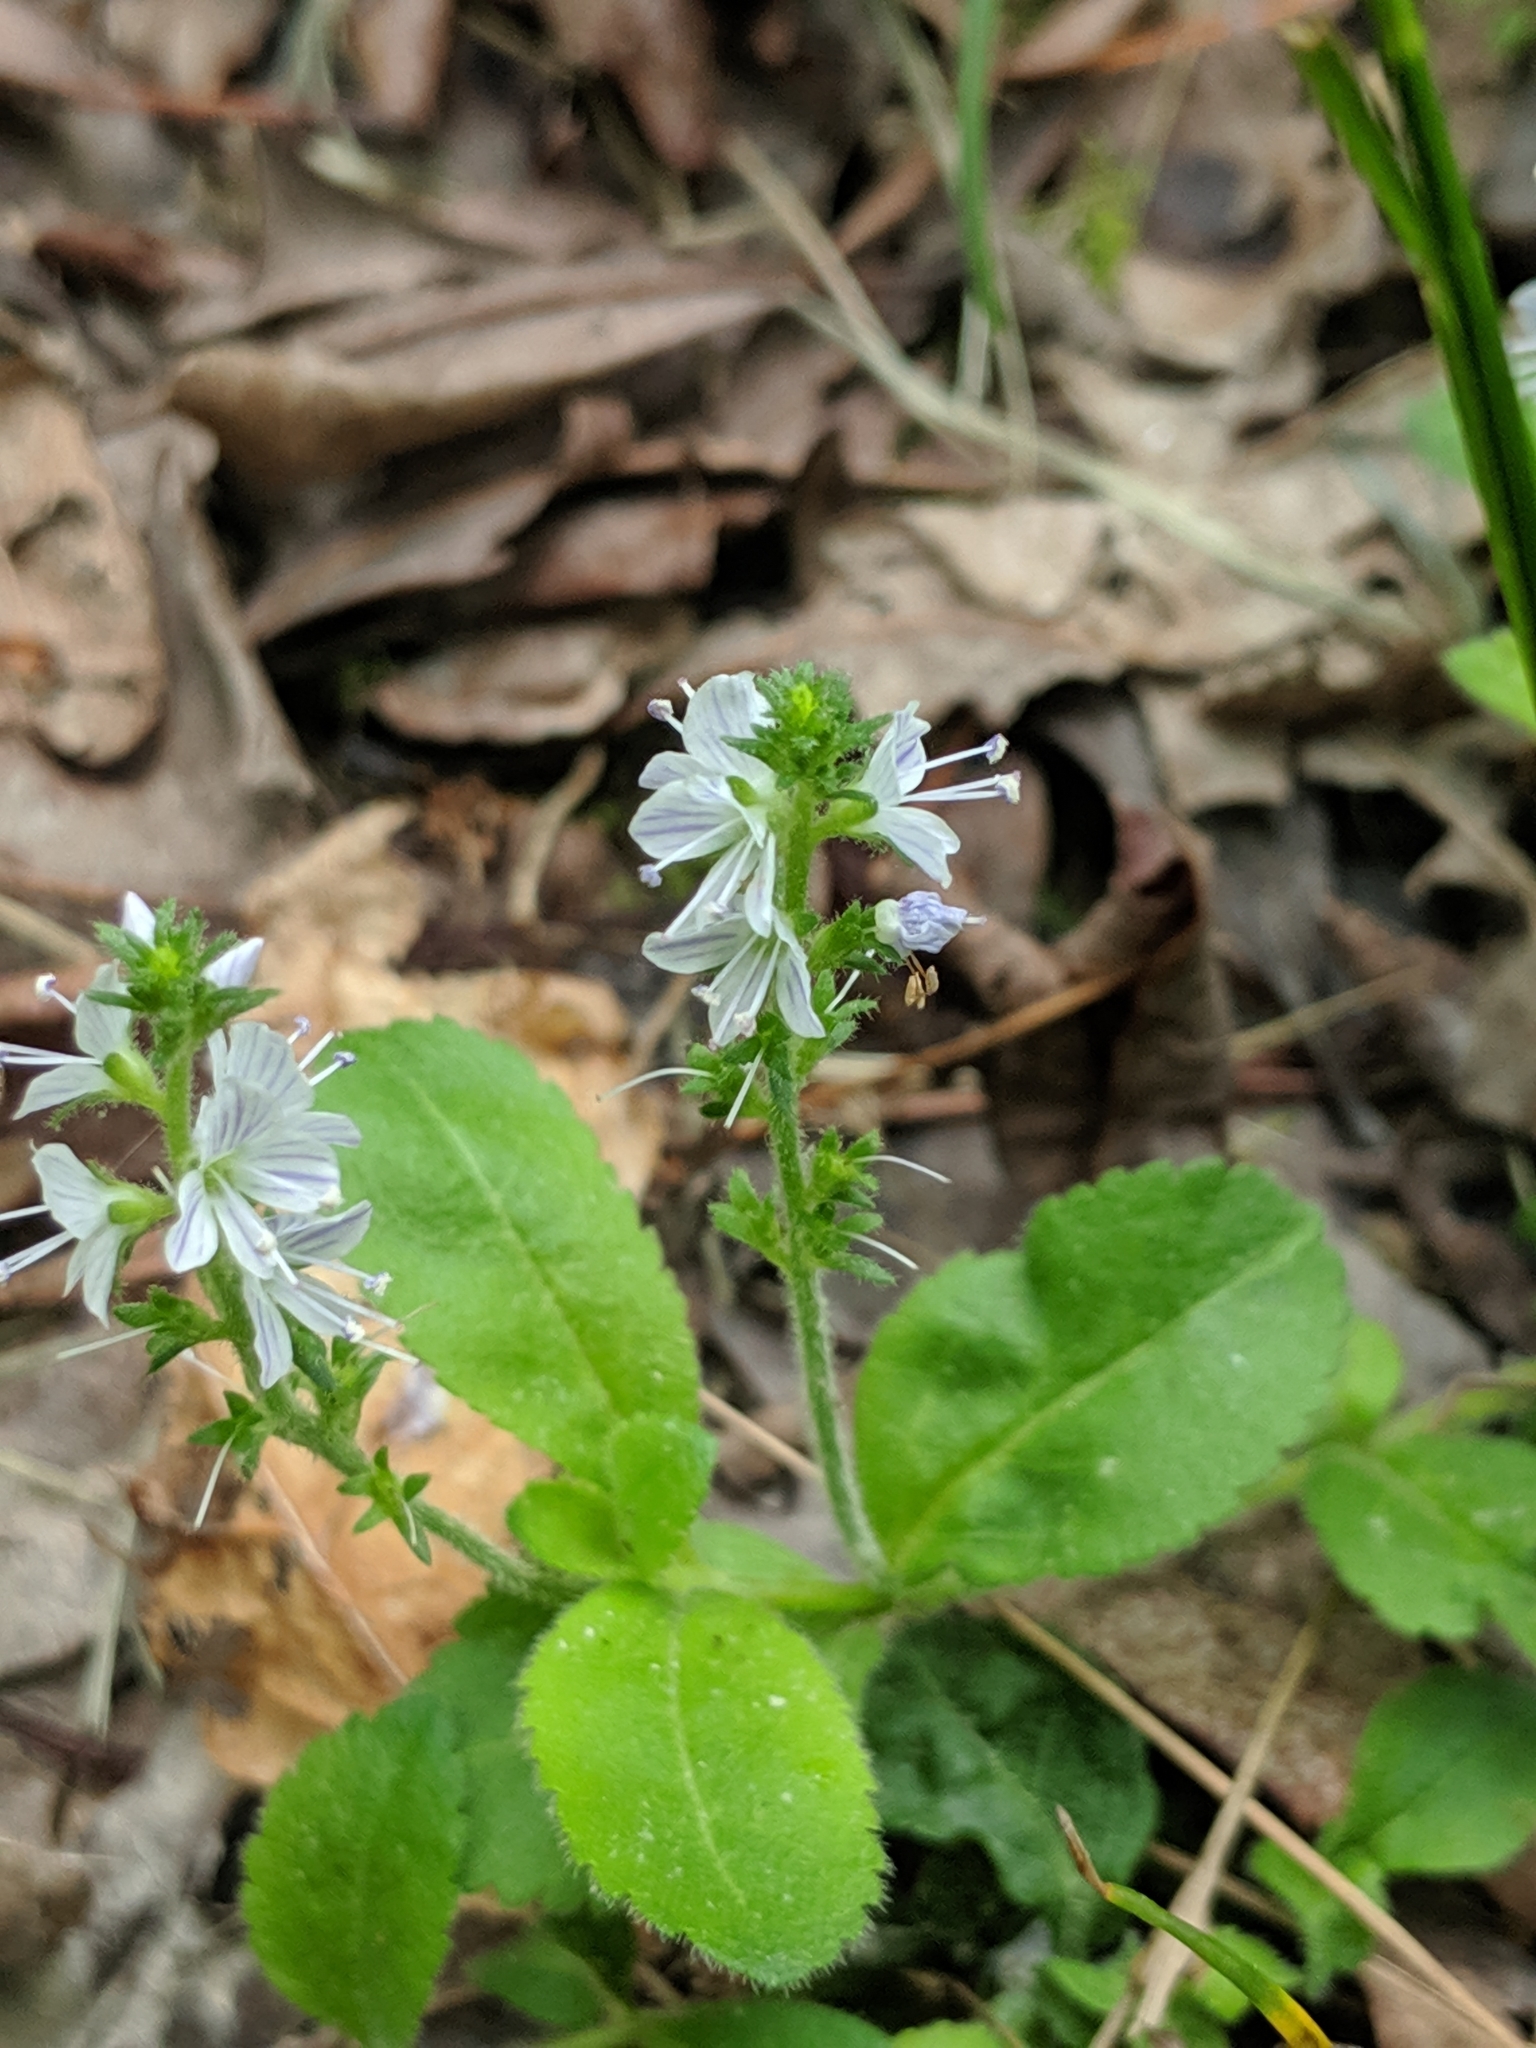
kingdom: Plantae
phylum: Tracheophyta
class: Magnoliopsida
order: Lamiales
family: Plantaginaceae
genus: Veronica
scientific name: Veronica officinalis
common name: Common speedwell
